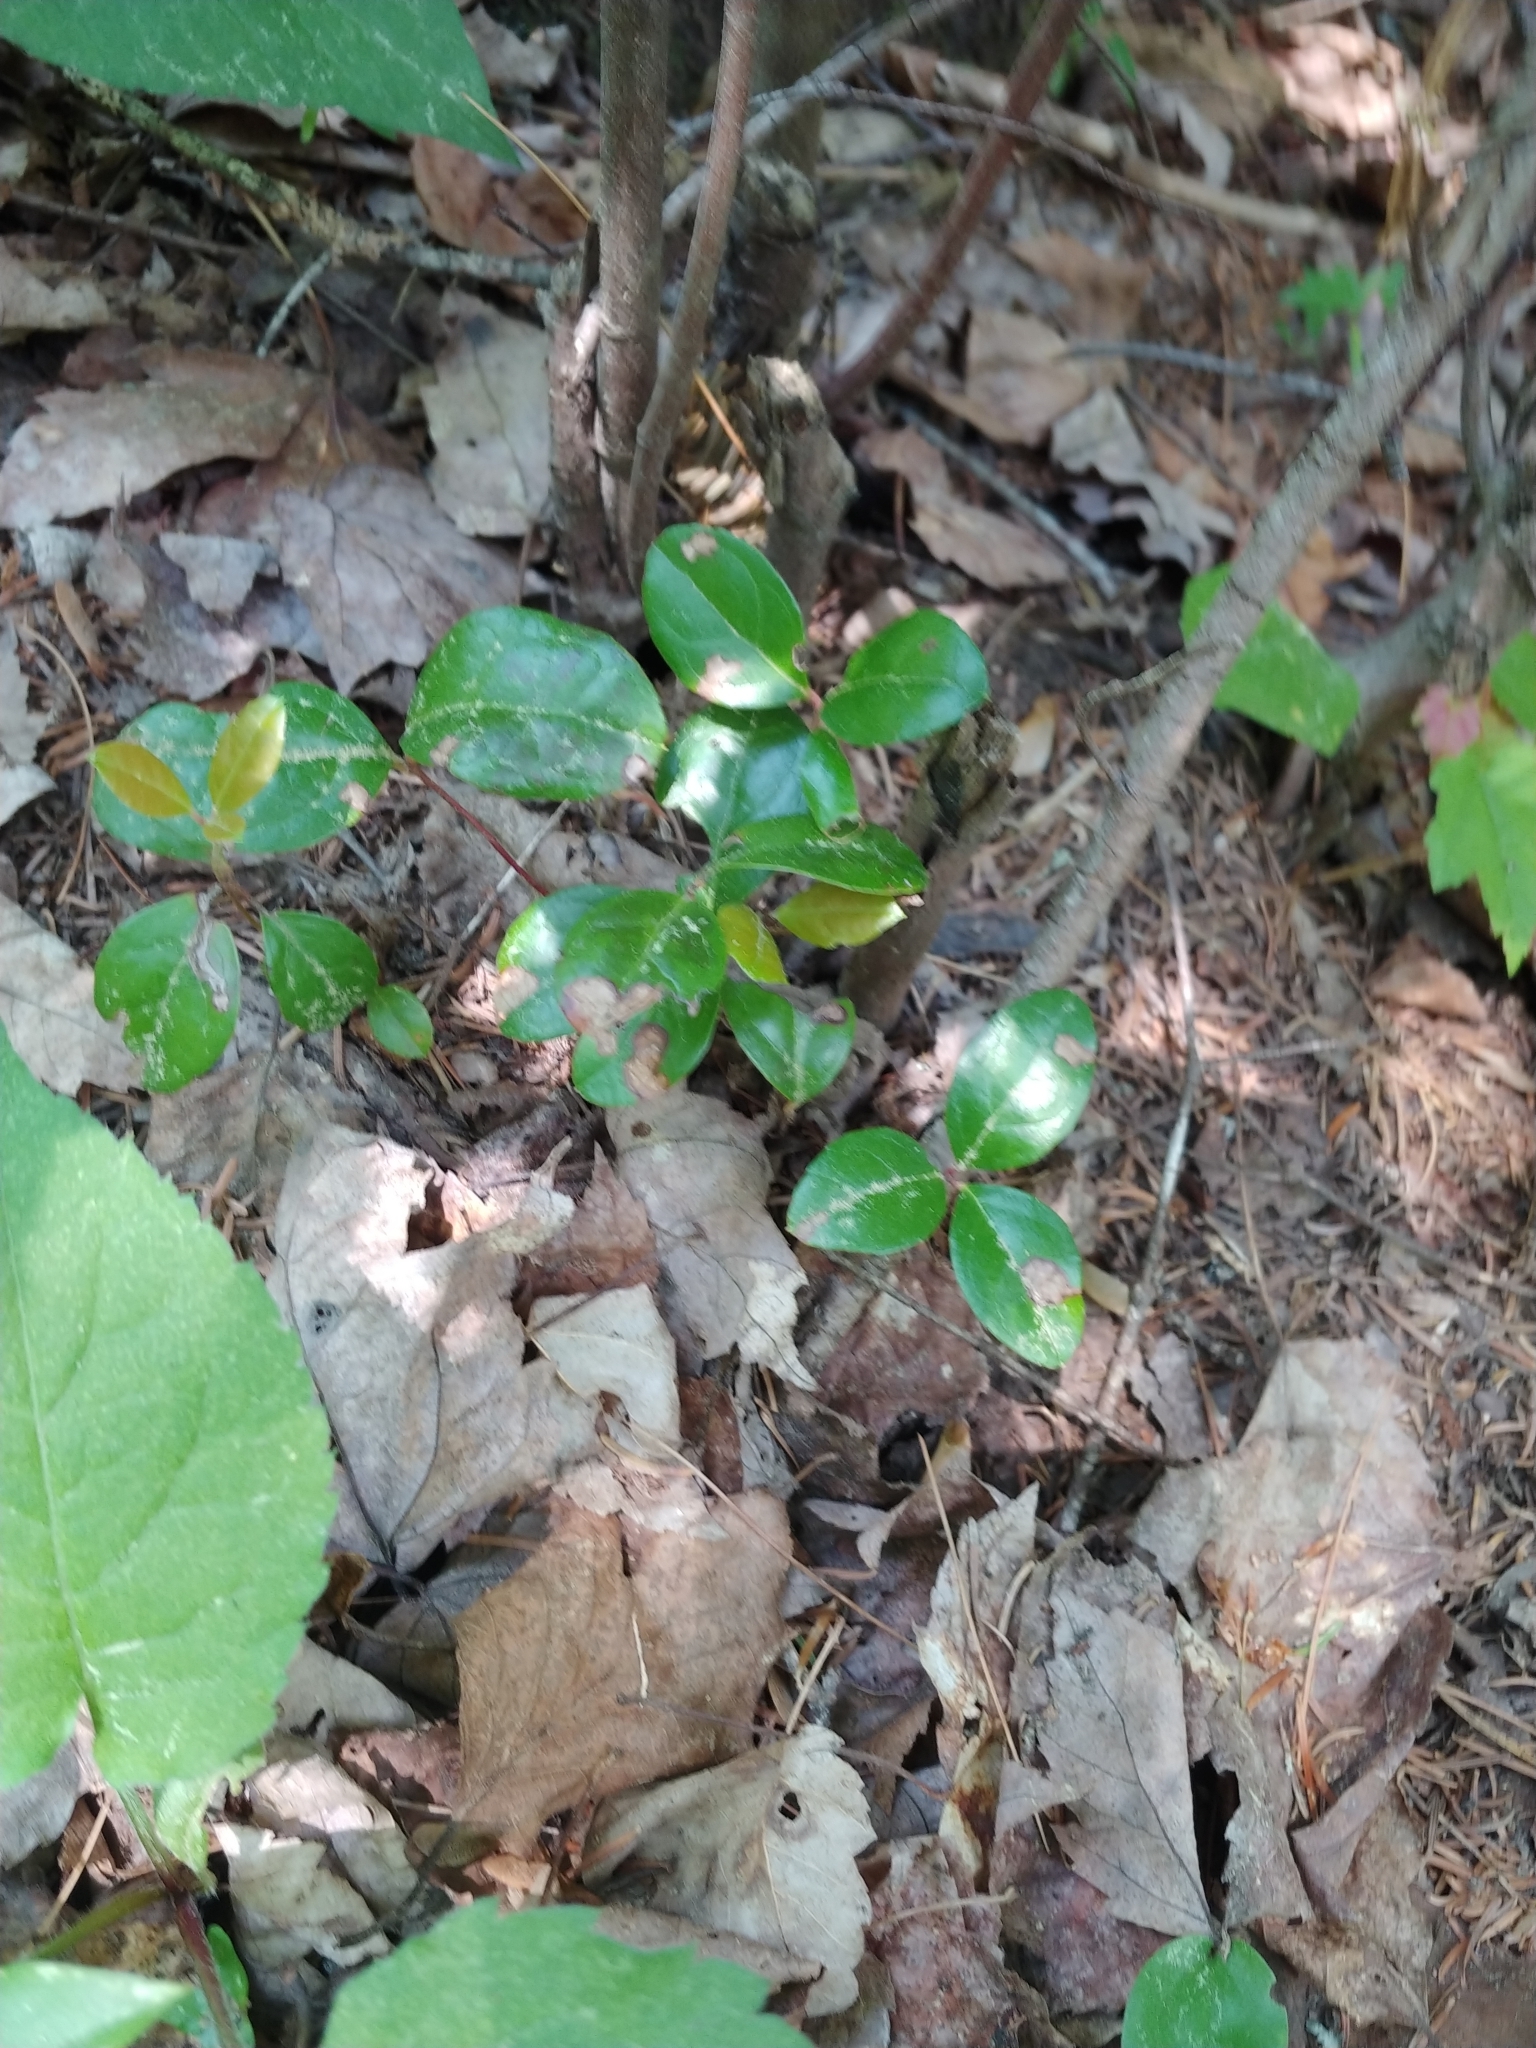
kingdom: Plantae
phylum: Tracheophyta
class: Magnoliopsida
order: Ericales
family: Ericaceae
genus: Gaultheria
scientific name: Gaultheria procumbens
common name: Checkerberry
